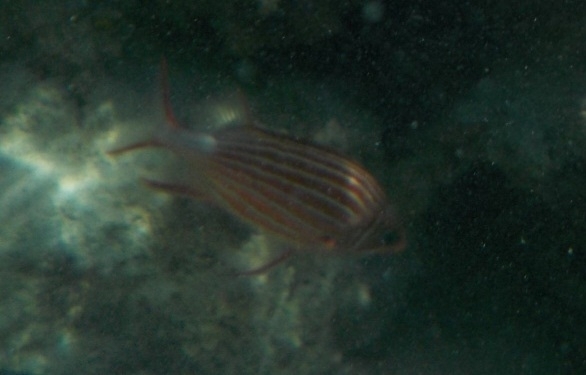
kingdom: Animalia
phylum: Chordata
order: Beryciformes
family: Holocentridae
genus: Sargocentron
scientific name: Sargocentron diadema
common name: Crown squirrelfish
